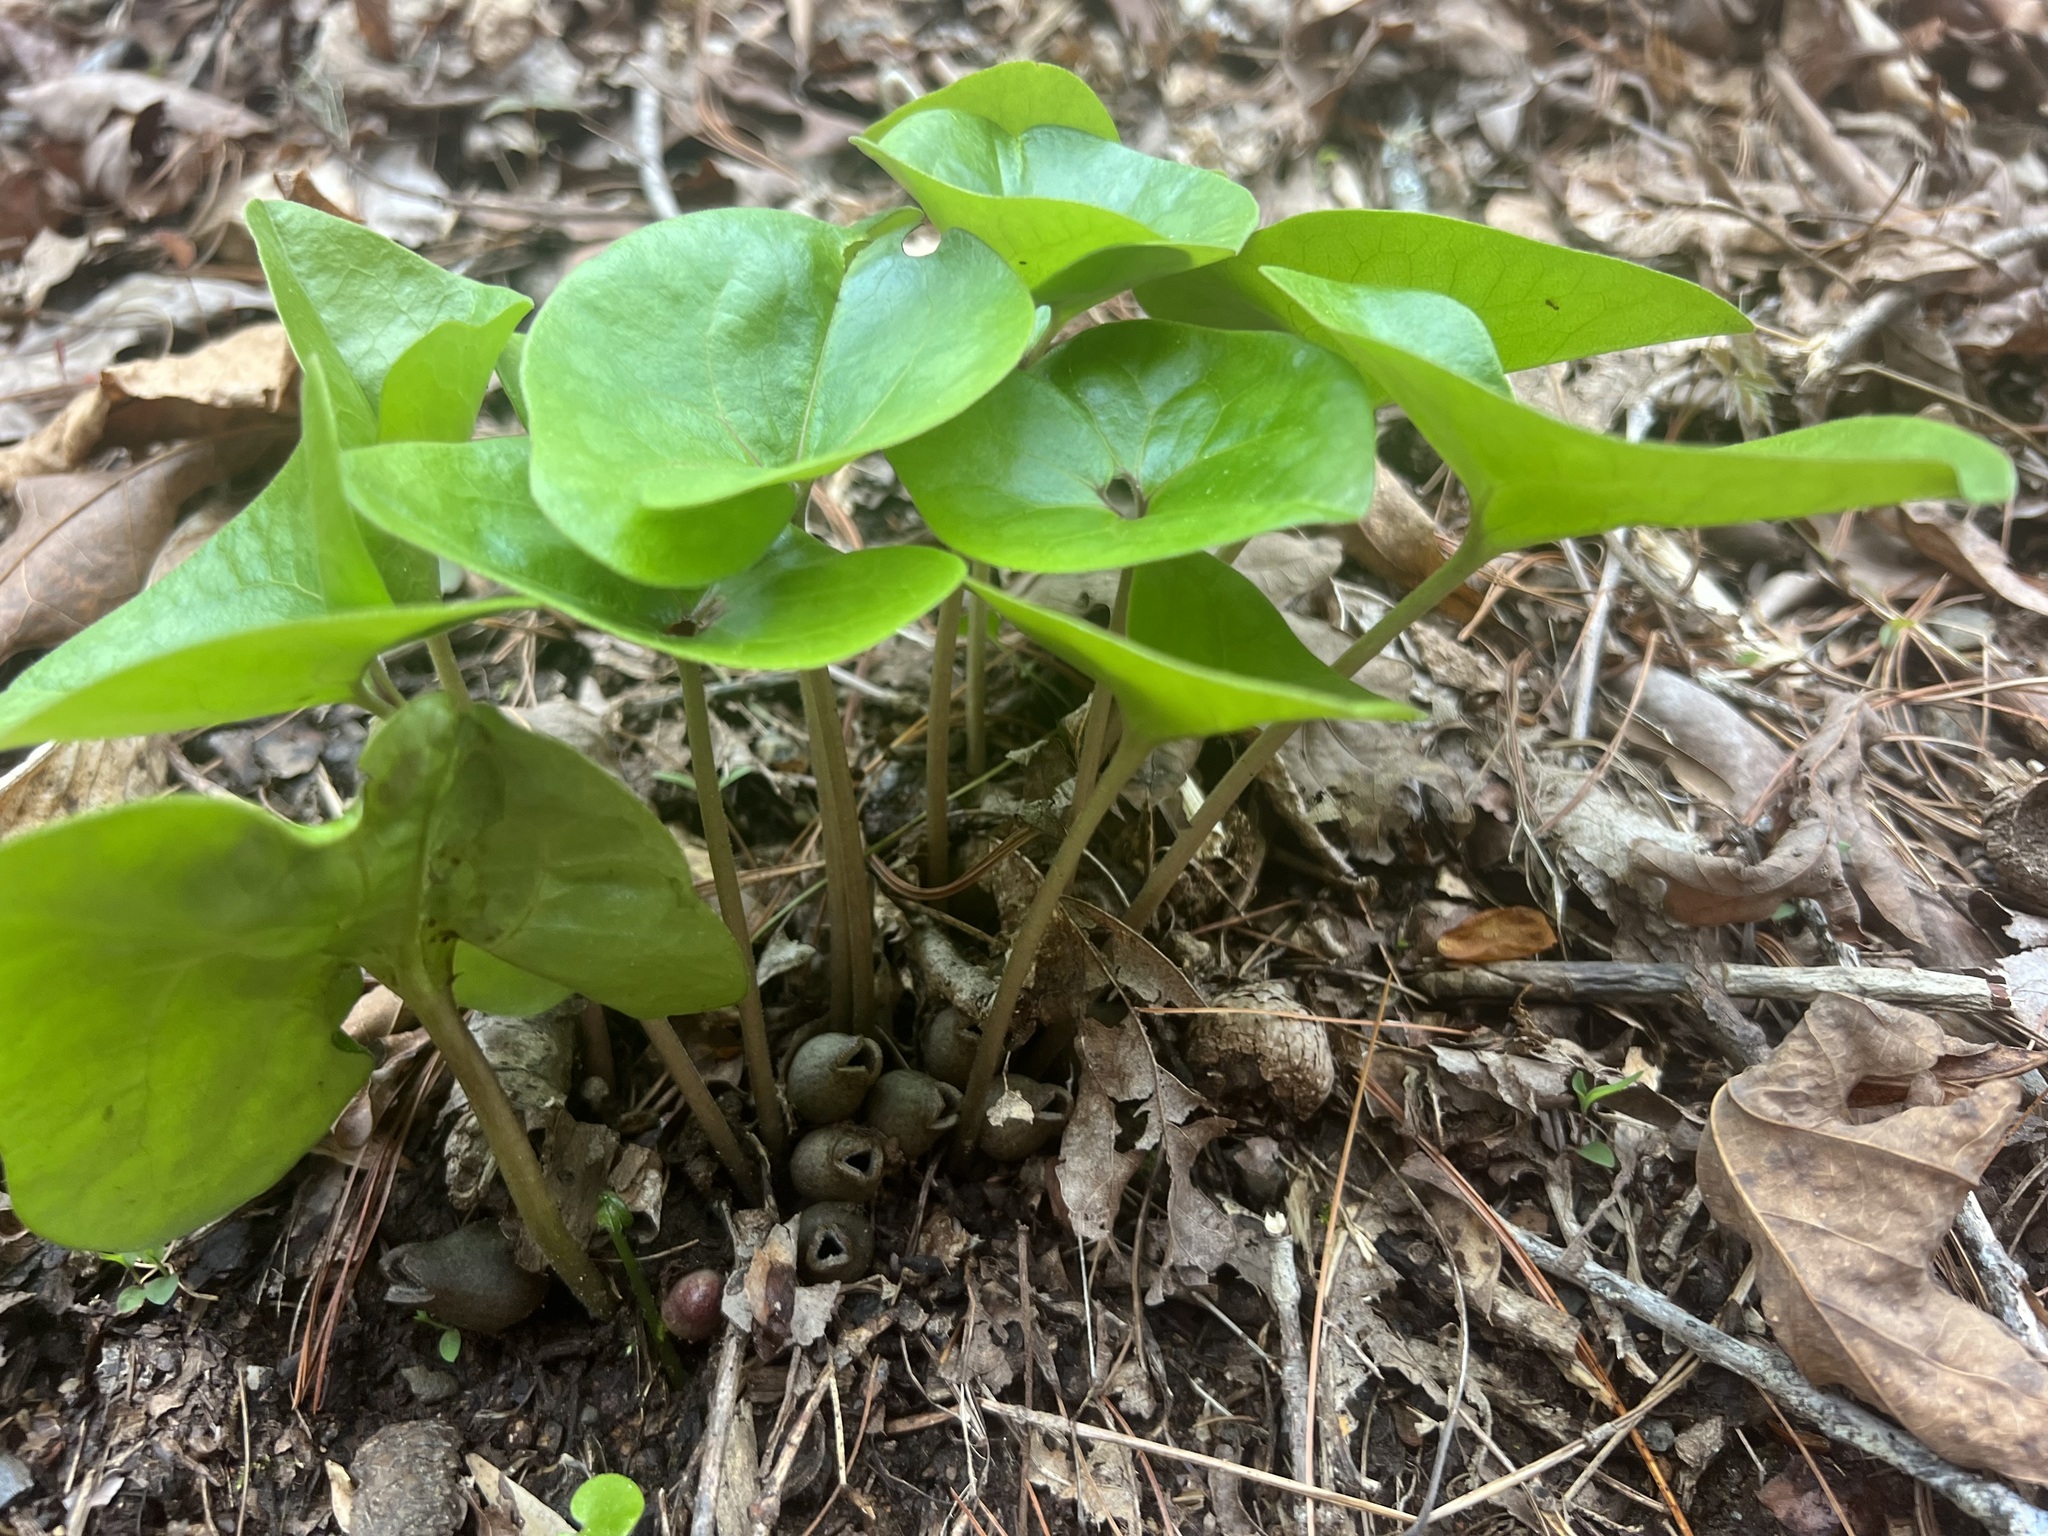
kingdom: Plantae
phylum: Tracheophyta
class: Magnoliopsida
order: Piperales
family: Aristolochiaceae
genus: Hexastylis
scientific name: Hexastylis arifolia
